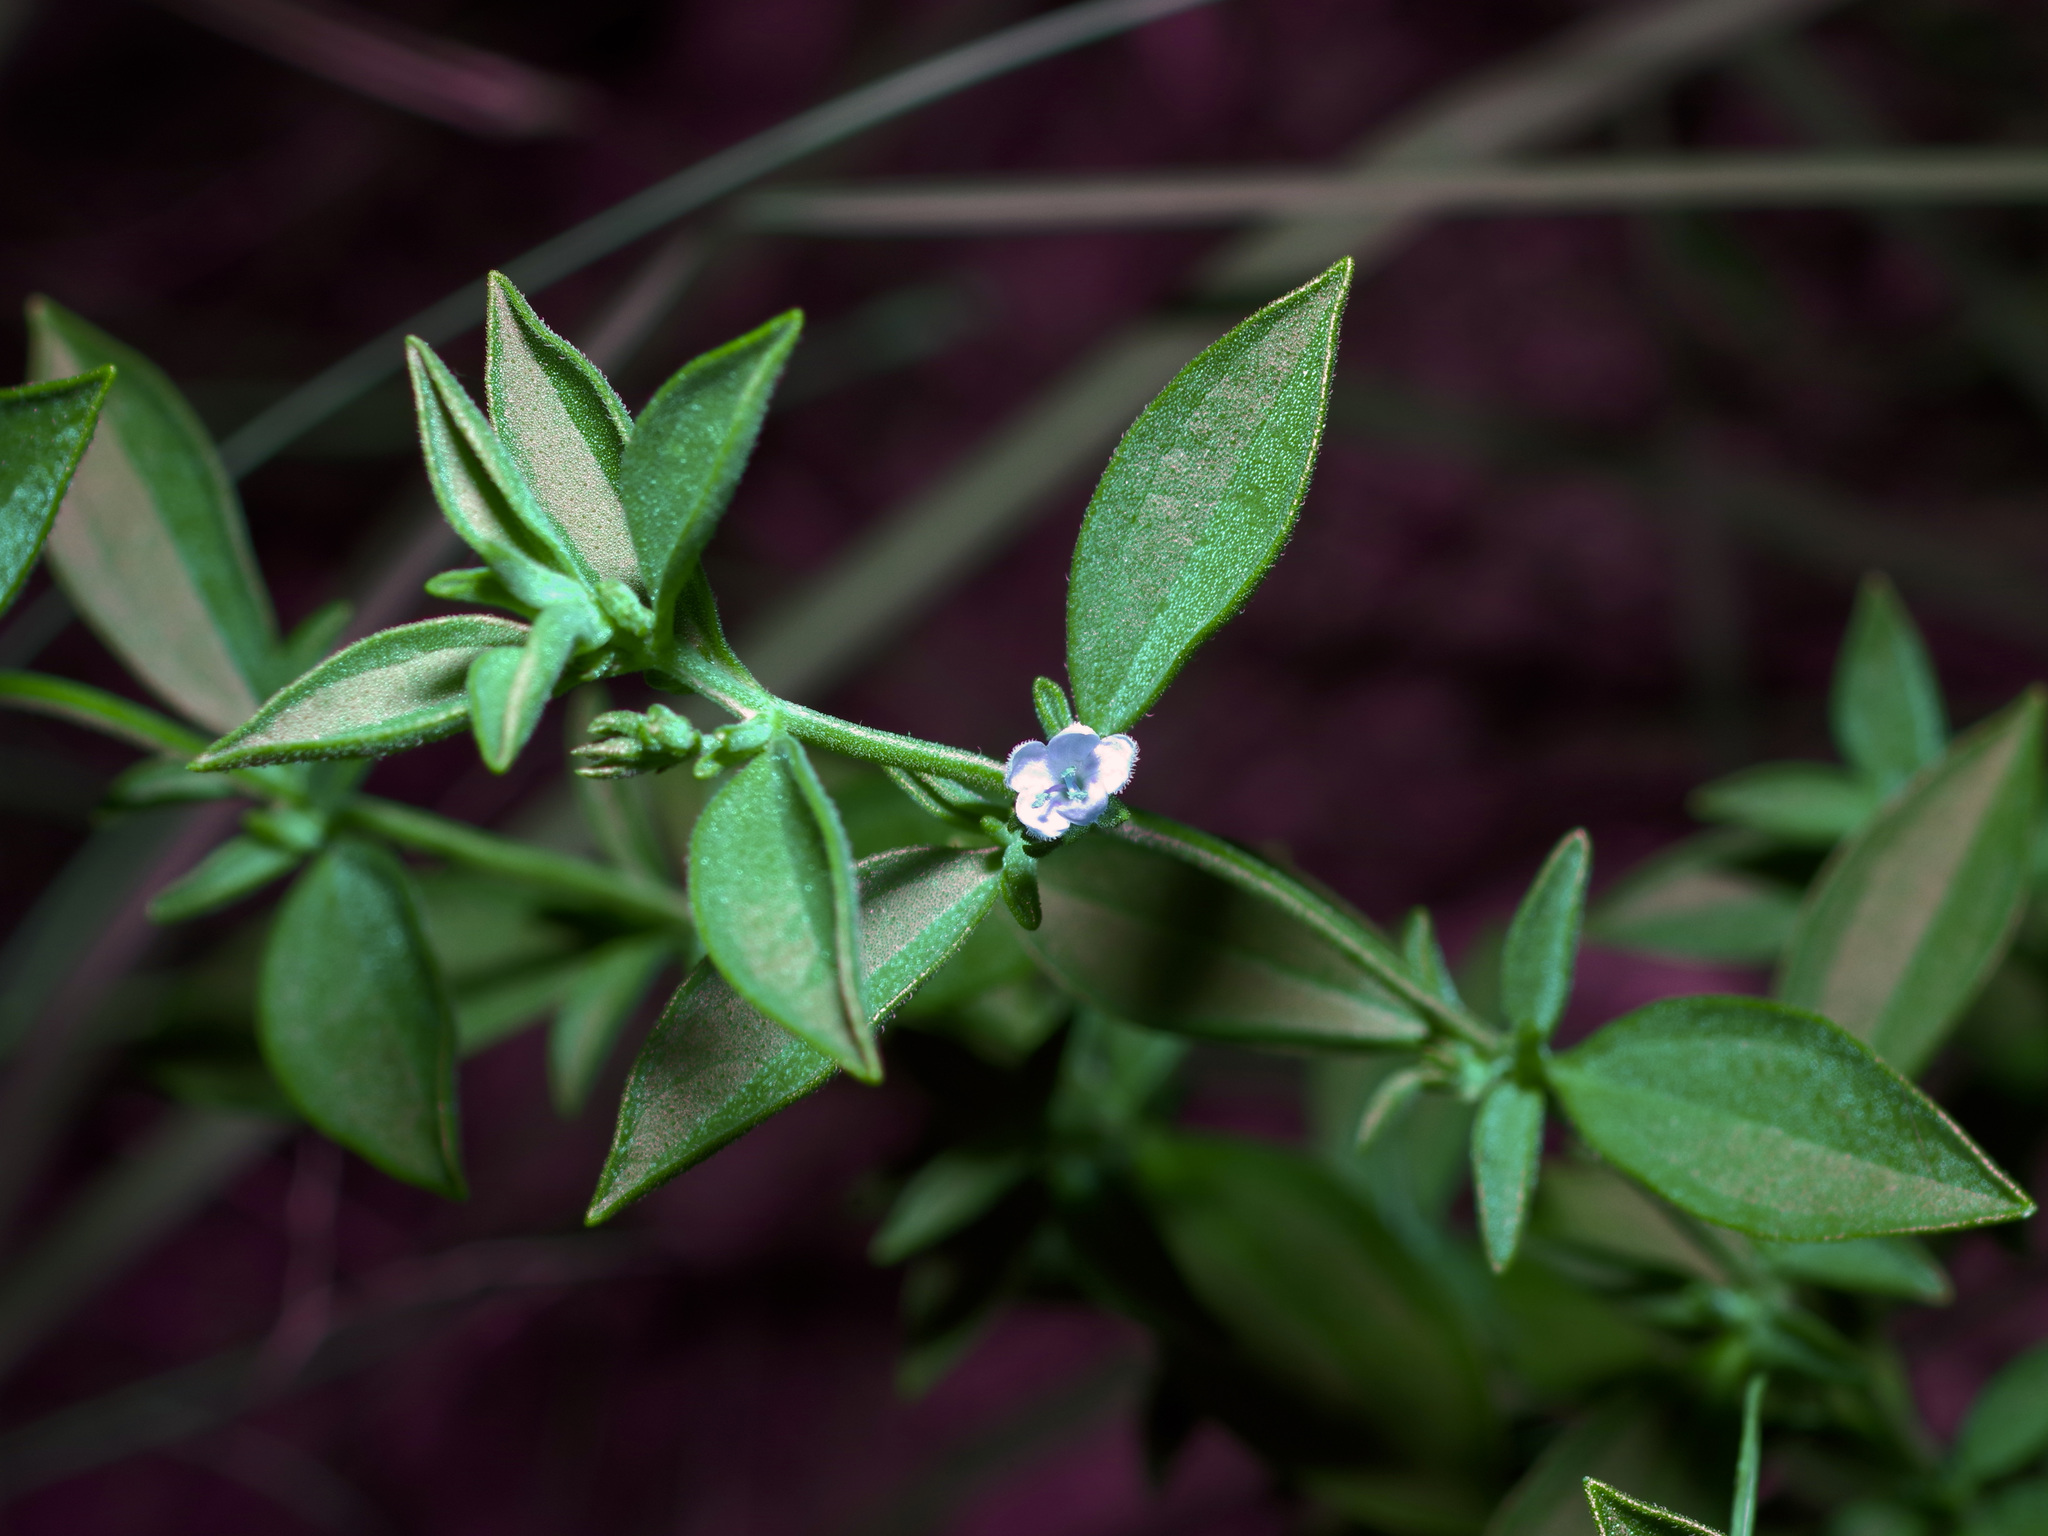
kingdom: Plantae
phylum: Tracheophyta
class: Magnoliopsida
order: Lamiales
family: Lamiaceae
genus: Trichostema
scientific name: Trichostema brachiatum
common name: False pennyroyal
